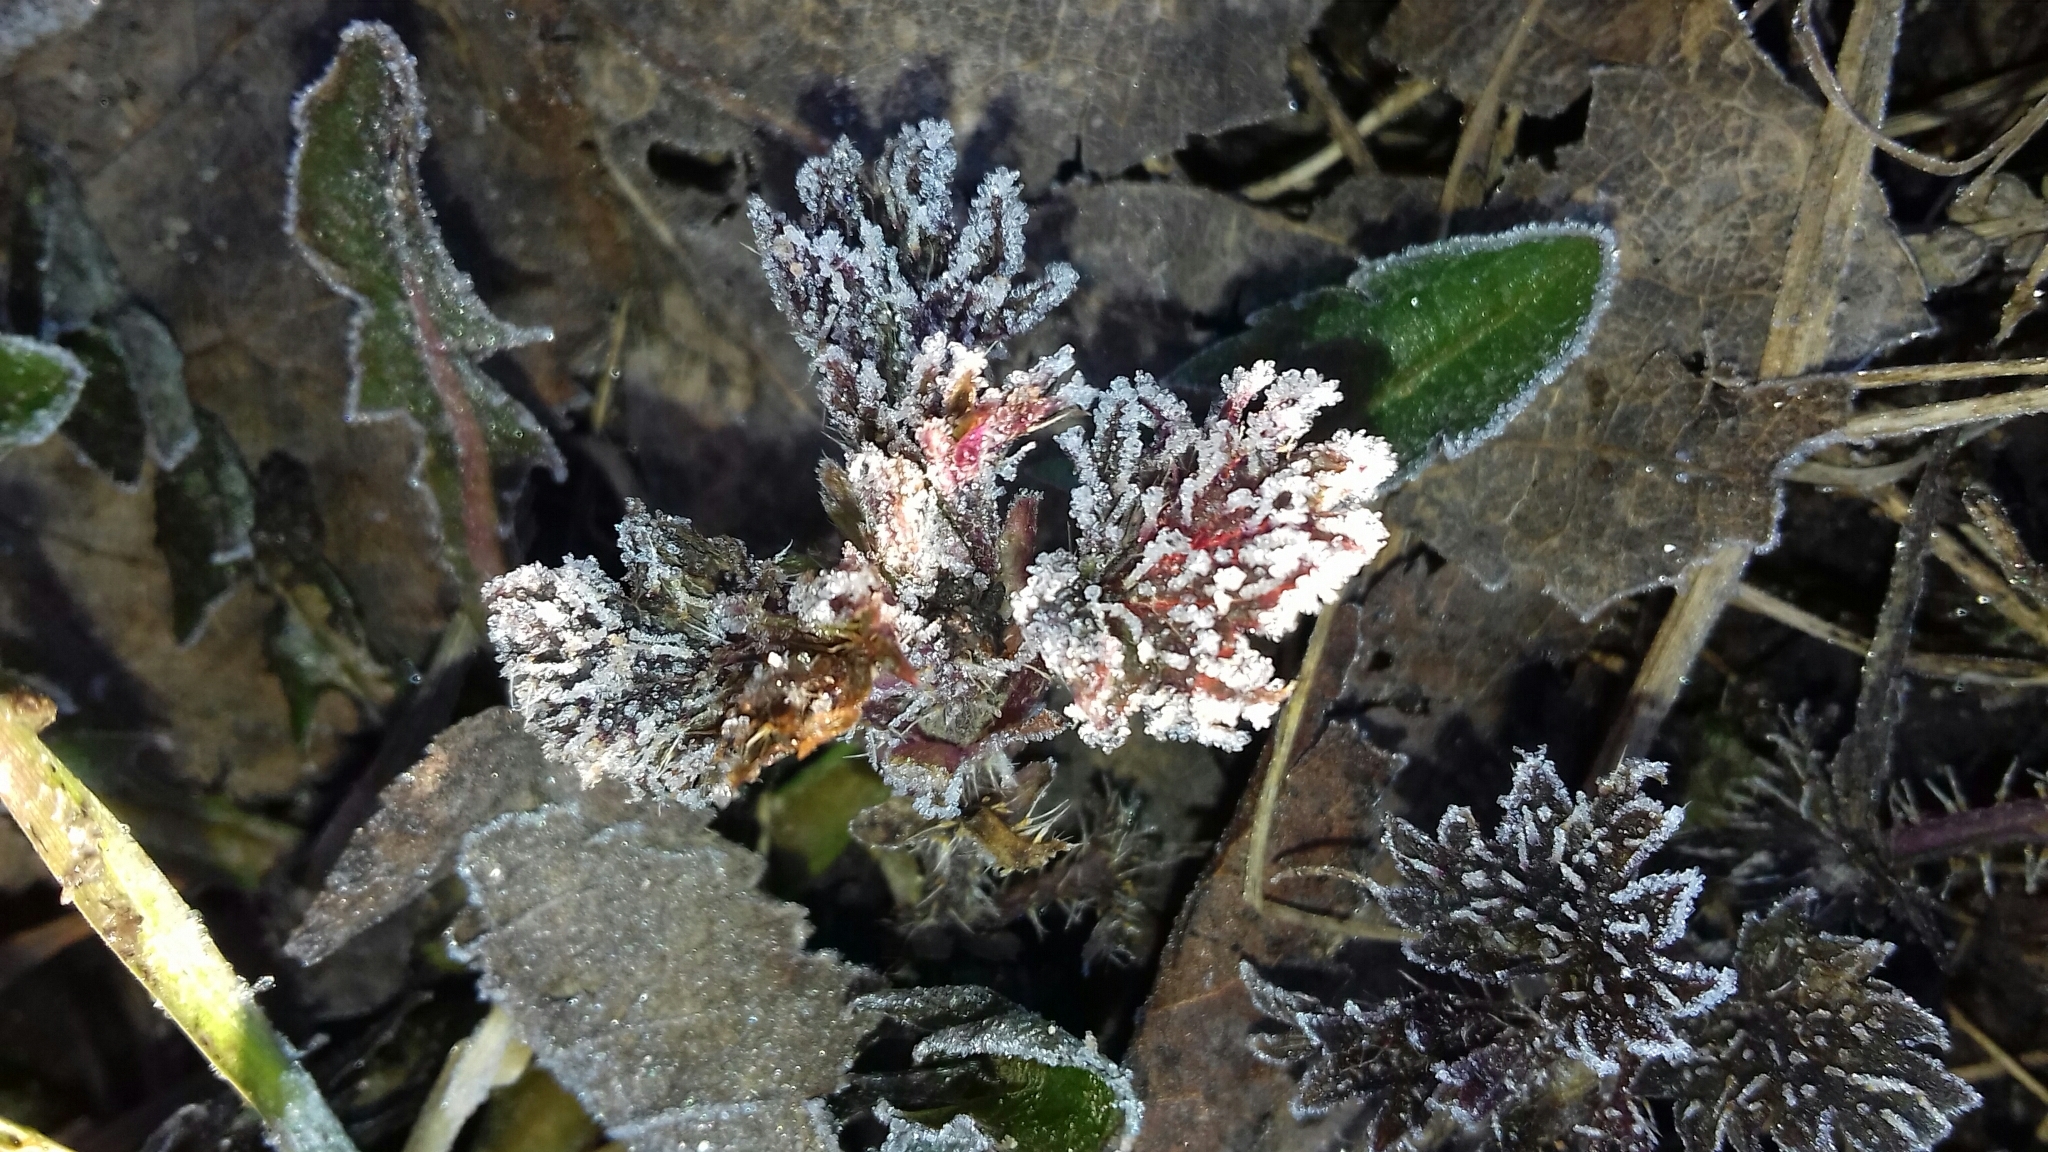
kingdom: Plantae
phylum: Tracheophyta
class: Magnoliopsida
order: Rosales
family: Urticaceae
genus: Urtica
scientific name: Urtica dioica
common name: Common nettle
